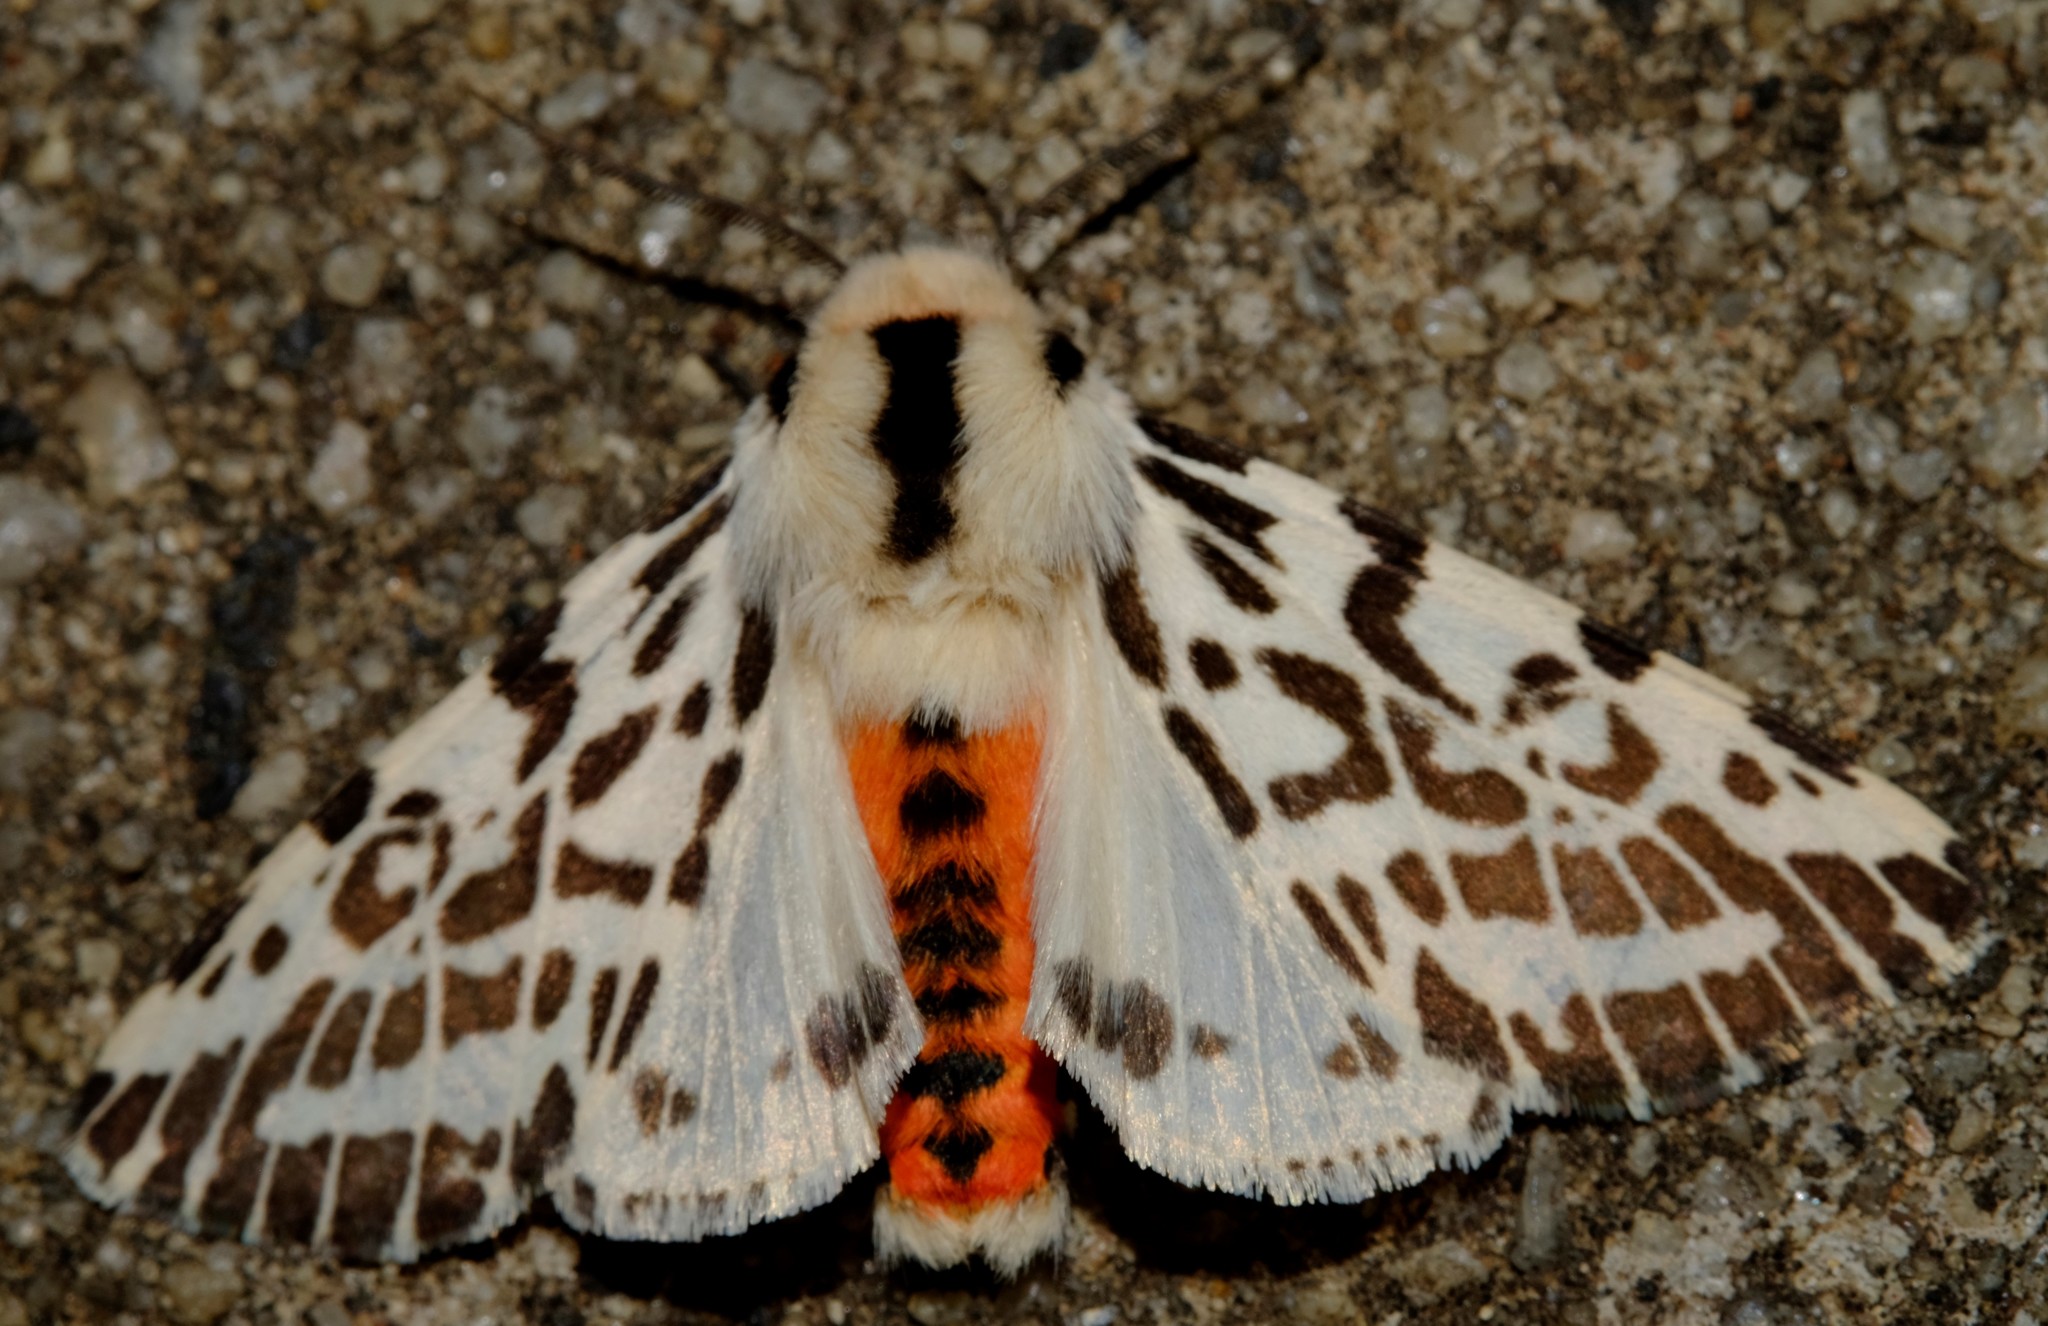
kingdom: Animalia
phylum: Arthropoda
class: Insecta
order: Lepidoptera
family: Erebidae
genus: Ardices
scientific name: Ardices glatignyi
